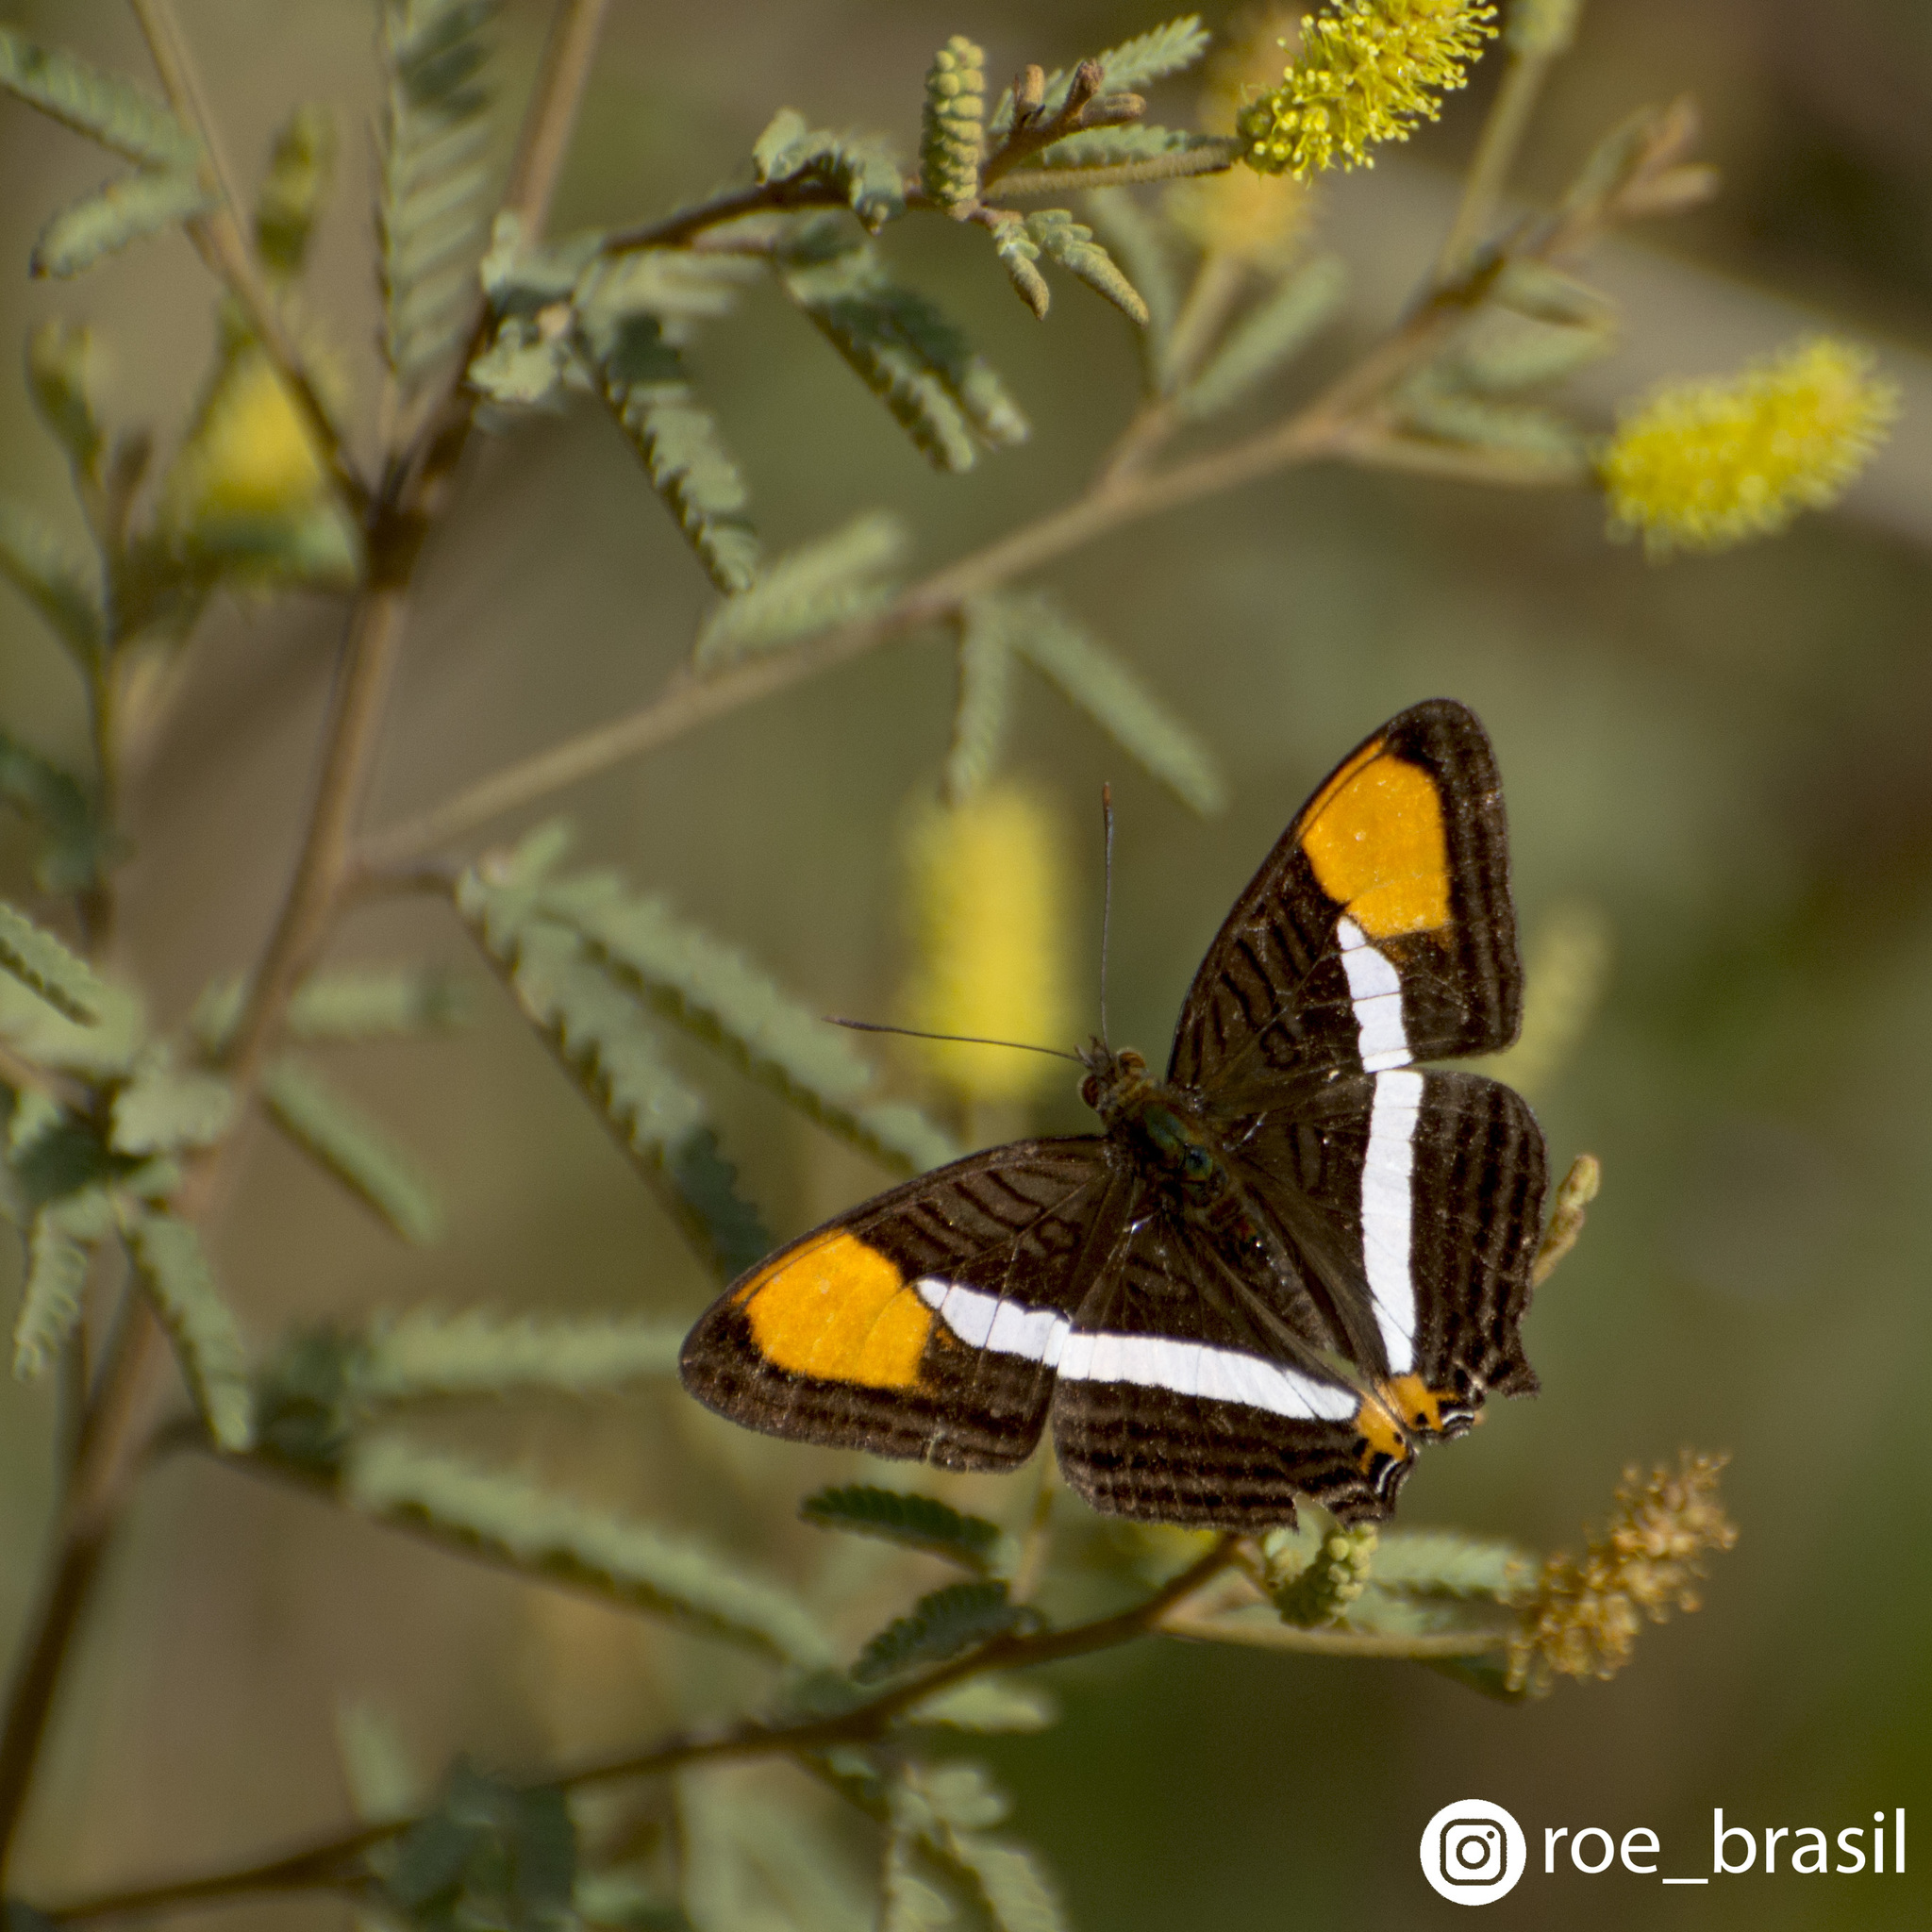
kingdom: Animalia
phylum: Arthropoda
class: Insecta
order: Lepidoptera
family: Nymphalidae
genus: Limenitis
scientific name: Limenitis syma
